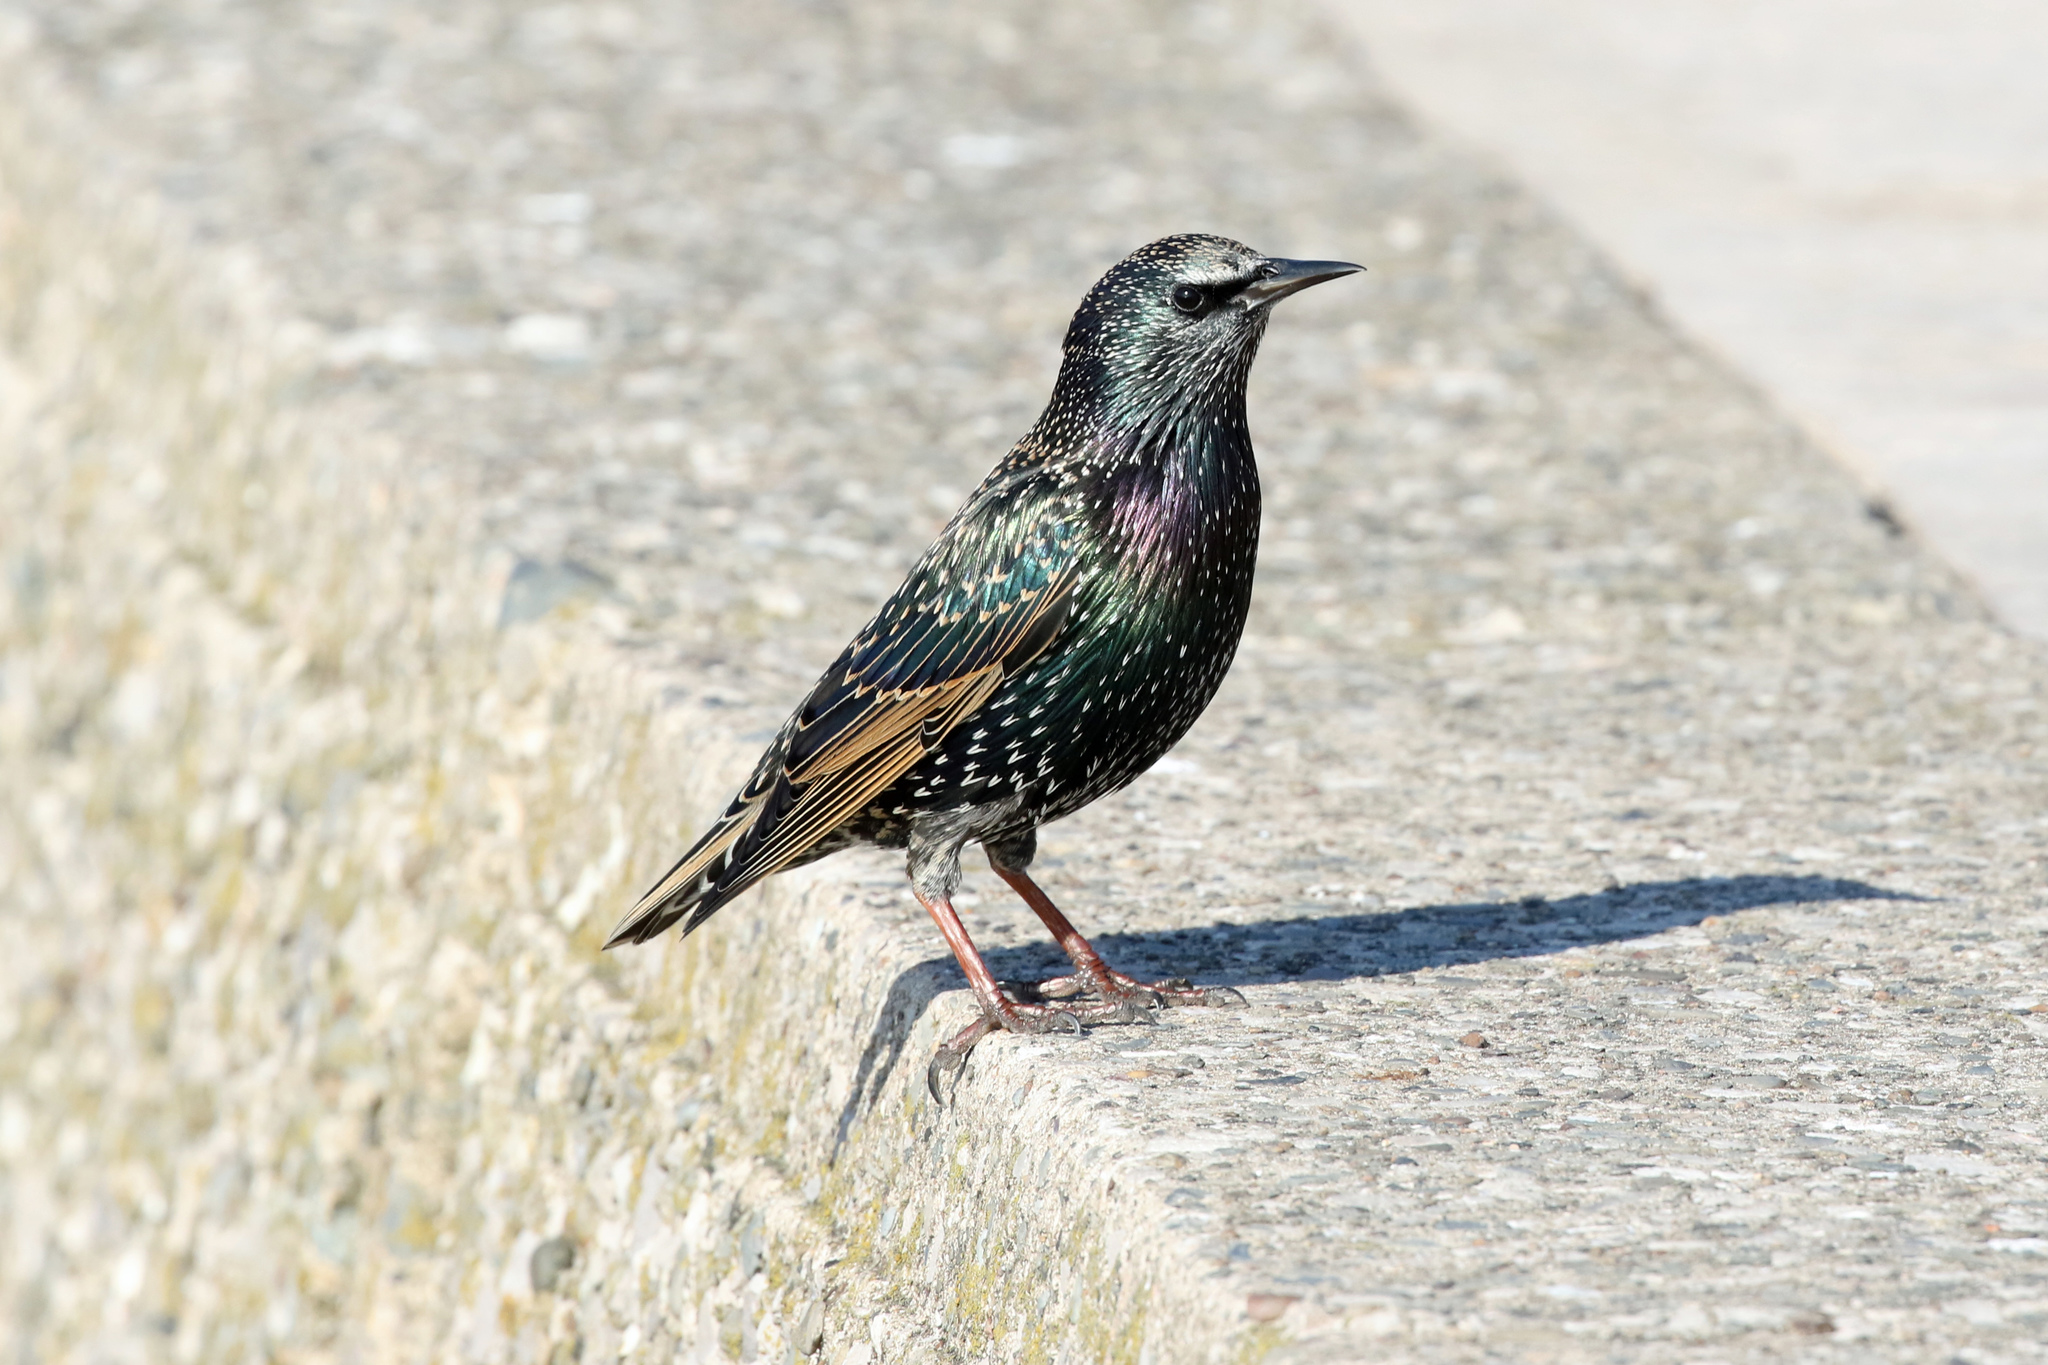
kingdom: Animalia
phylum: Chordata
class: Aves
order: Passeriformes
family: Sturnidae
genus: Sturnus
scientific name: Sturnus vulgaris
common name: Common starling
